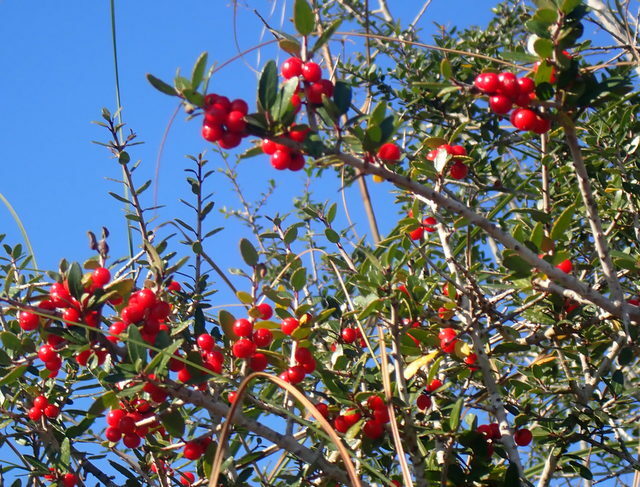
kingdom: Plantae
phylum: Tracheophyta
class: Magnoliopsida
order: Aquifoliales
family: Aquifoliaceae
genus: Ilex
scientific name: Ilex vomitoria
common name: Yaupon holly
